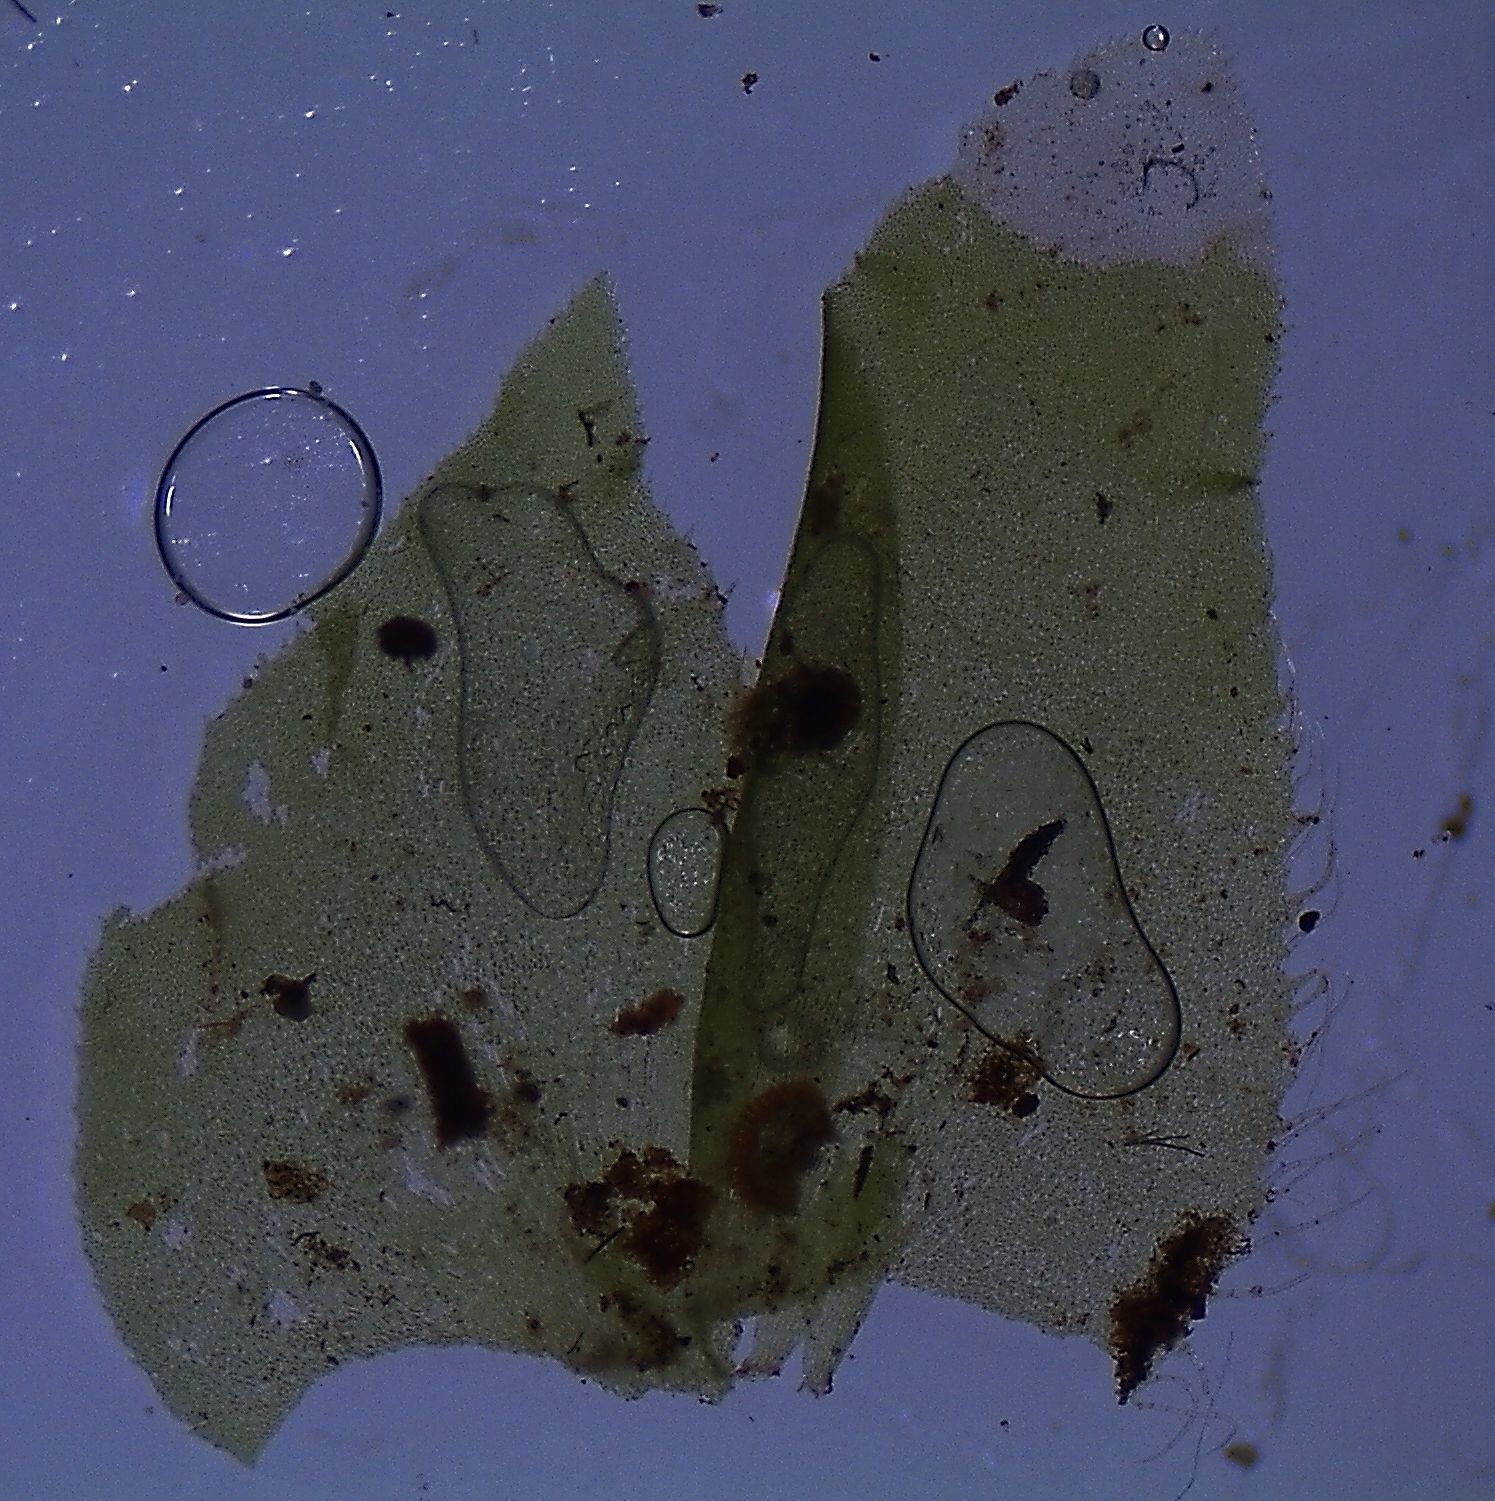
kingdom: Plantae
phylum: Marchantiophyta
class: Jungermanniopsida
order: Jungermanniales
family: Schistochilaceae
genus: Schistochila
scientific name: Schistochila pluriciliata
